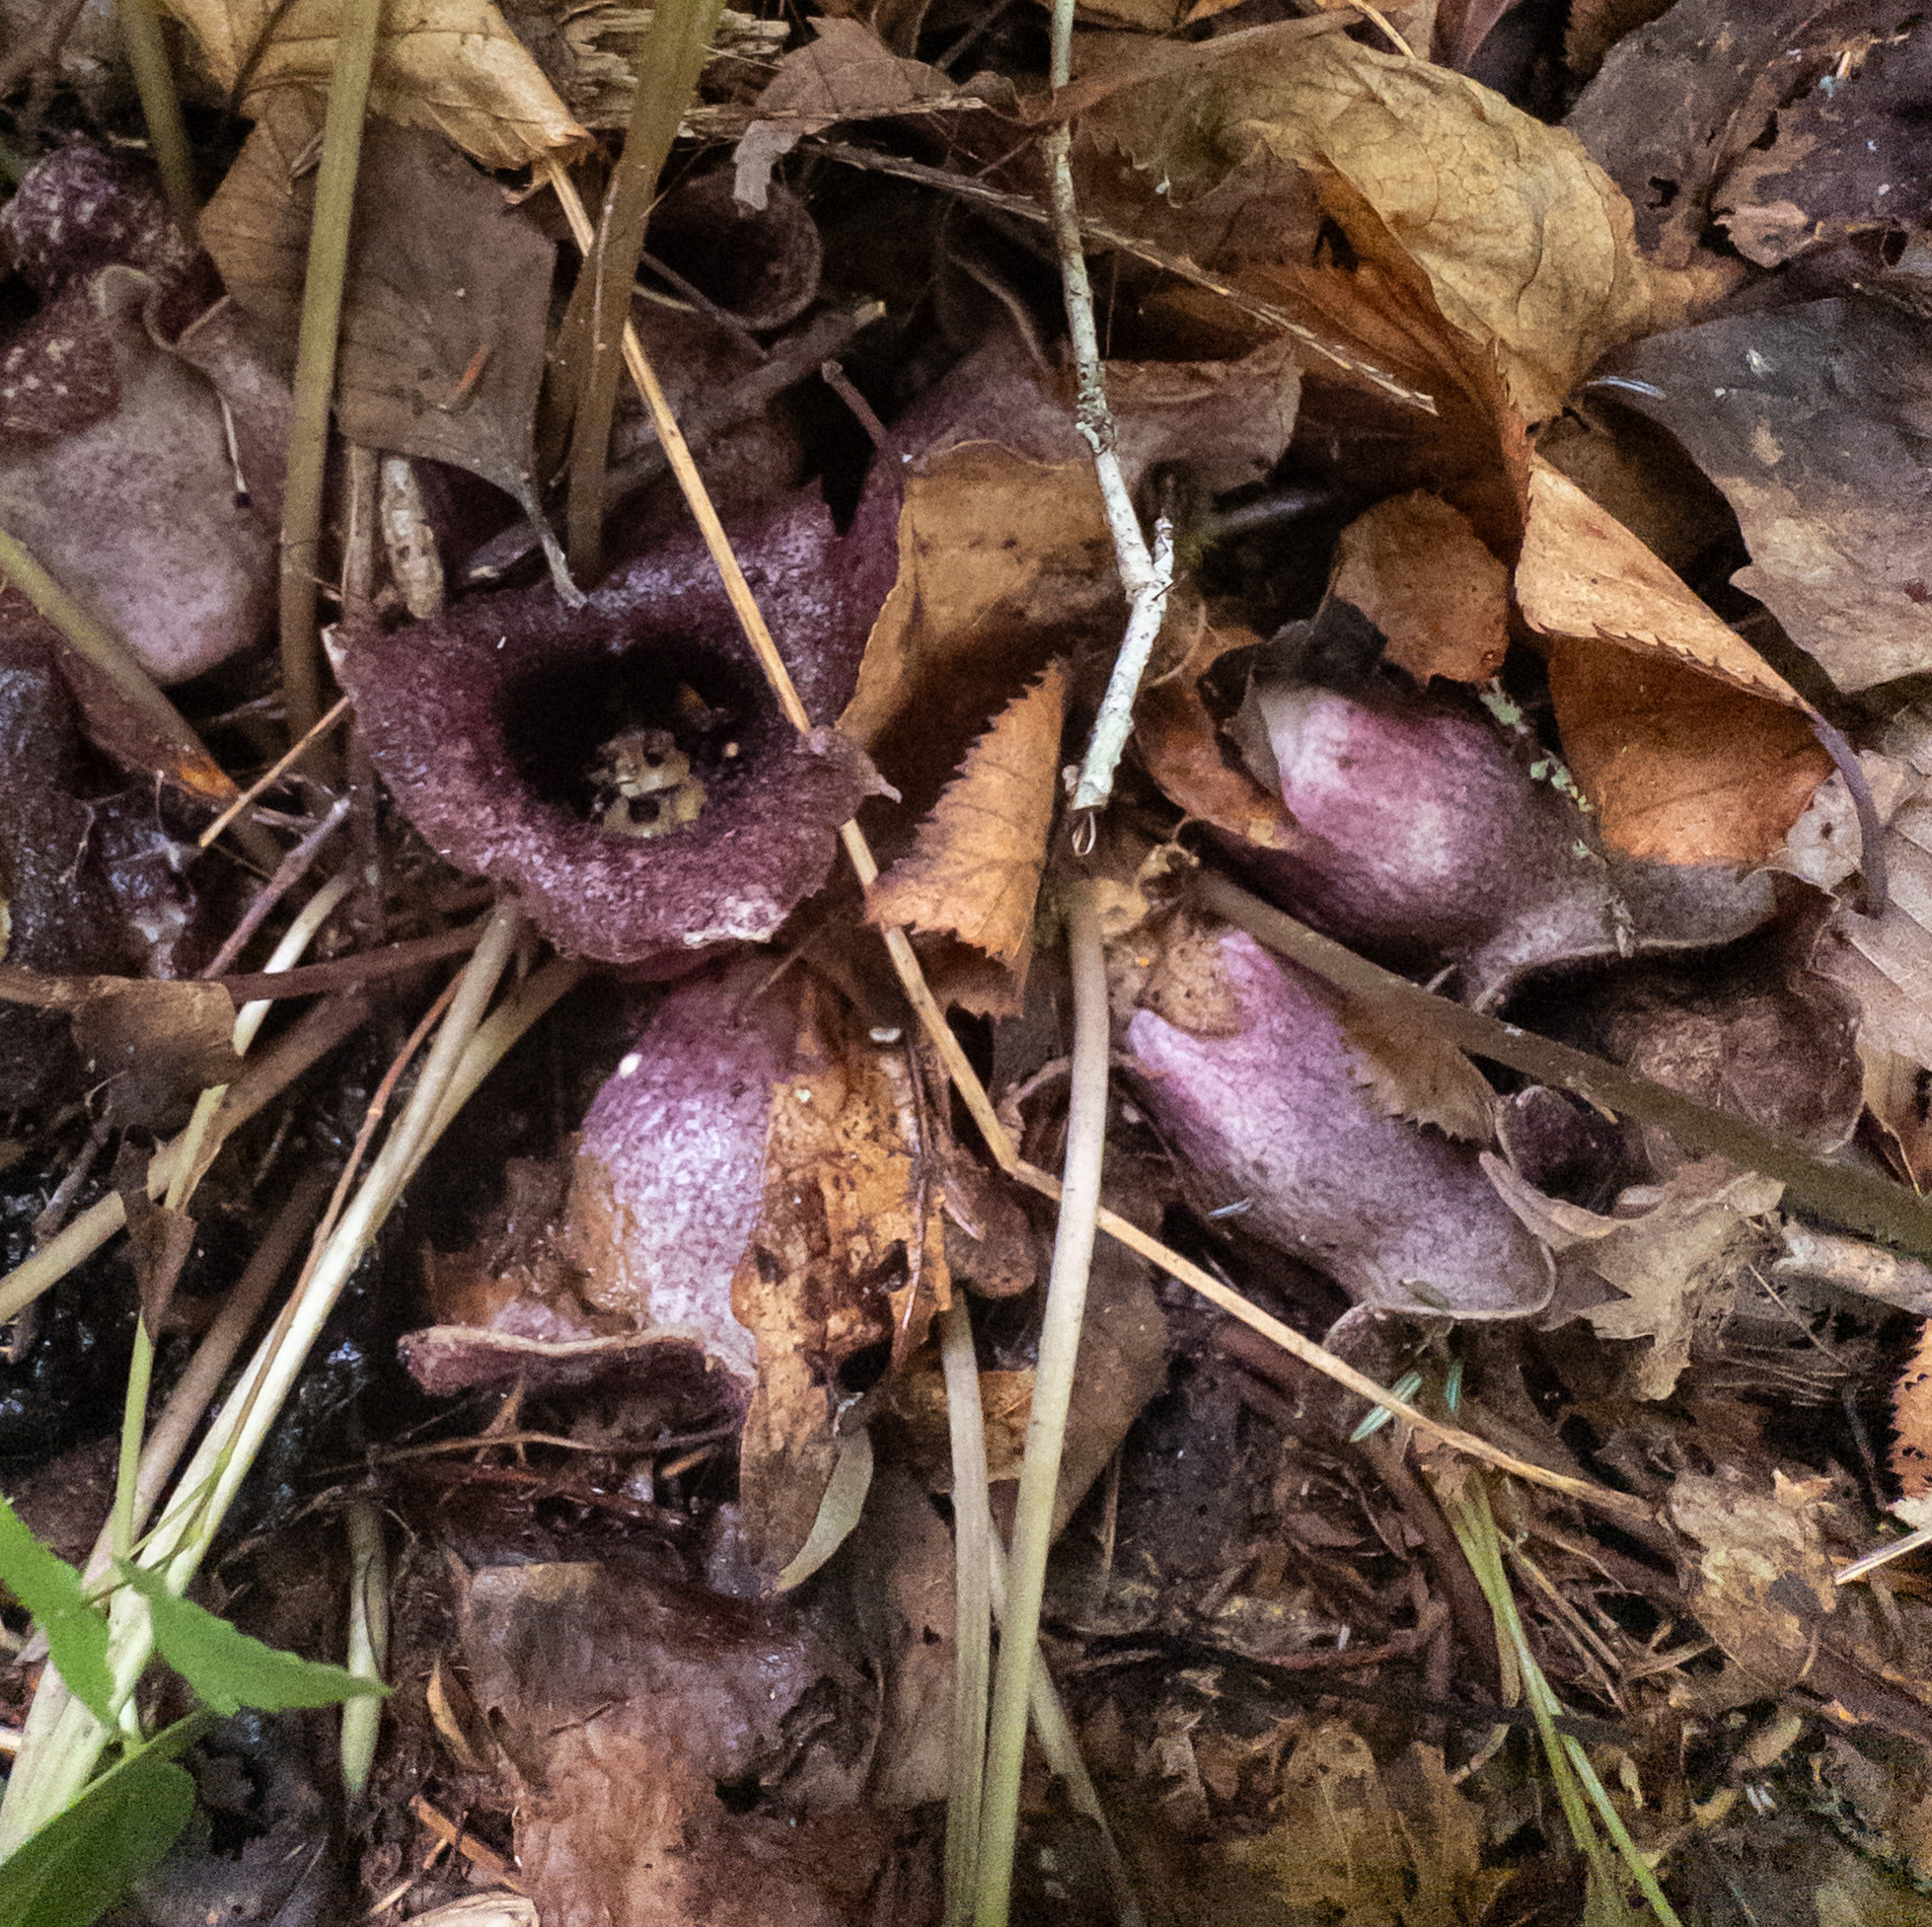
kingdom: Plantae
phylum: Tracheophyta
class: Magnoliopsida
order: Piperales
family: Aristolochiaceae
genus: Hexastylis
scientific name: Hexastylis shuttleworthii
